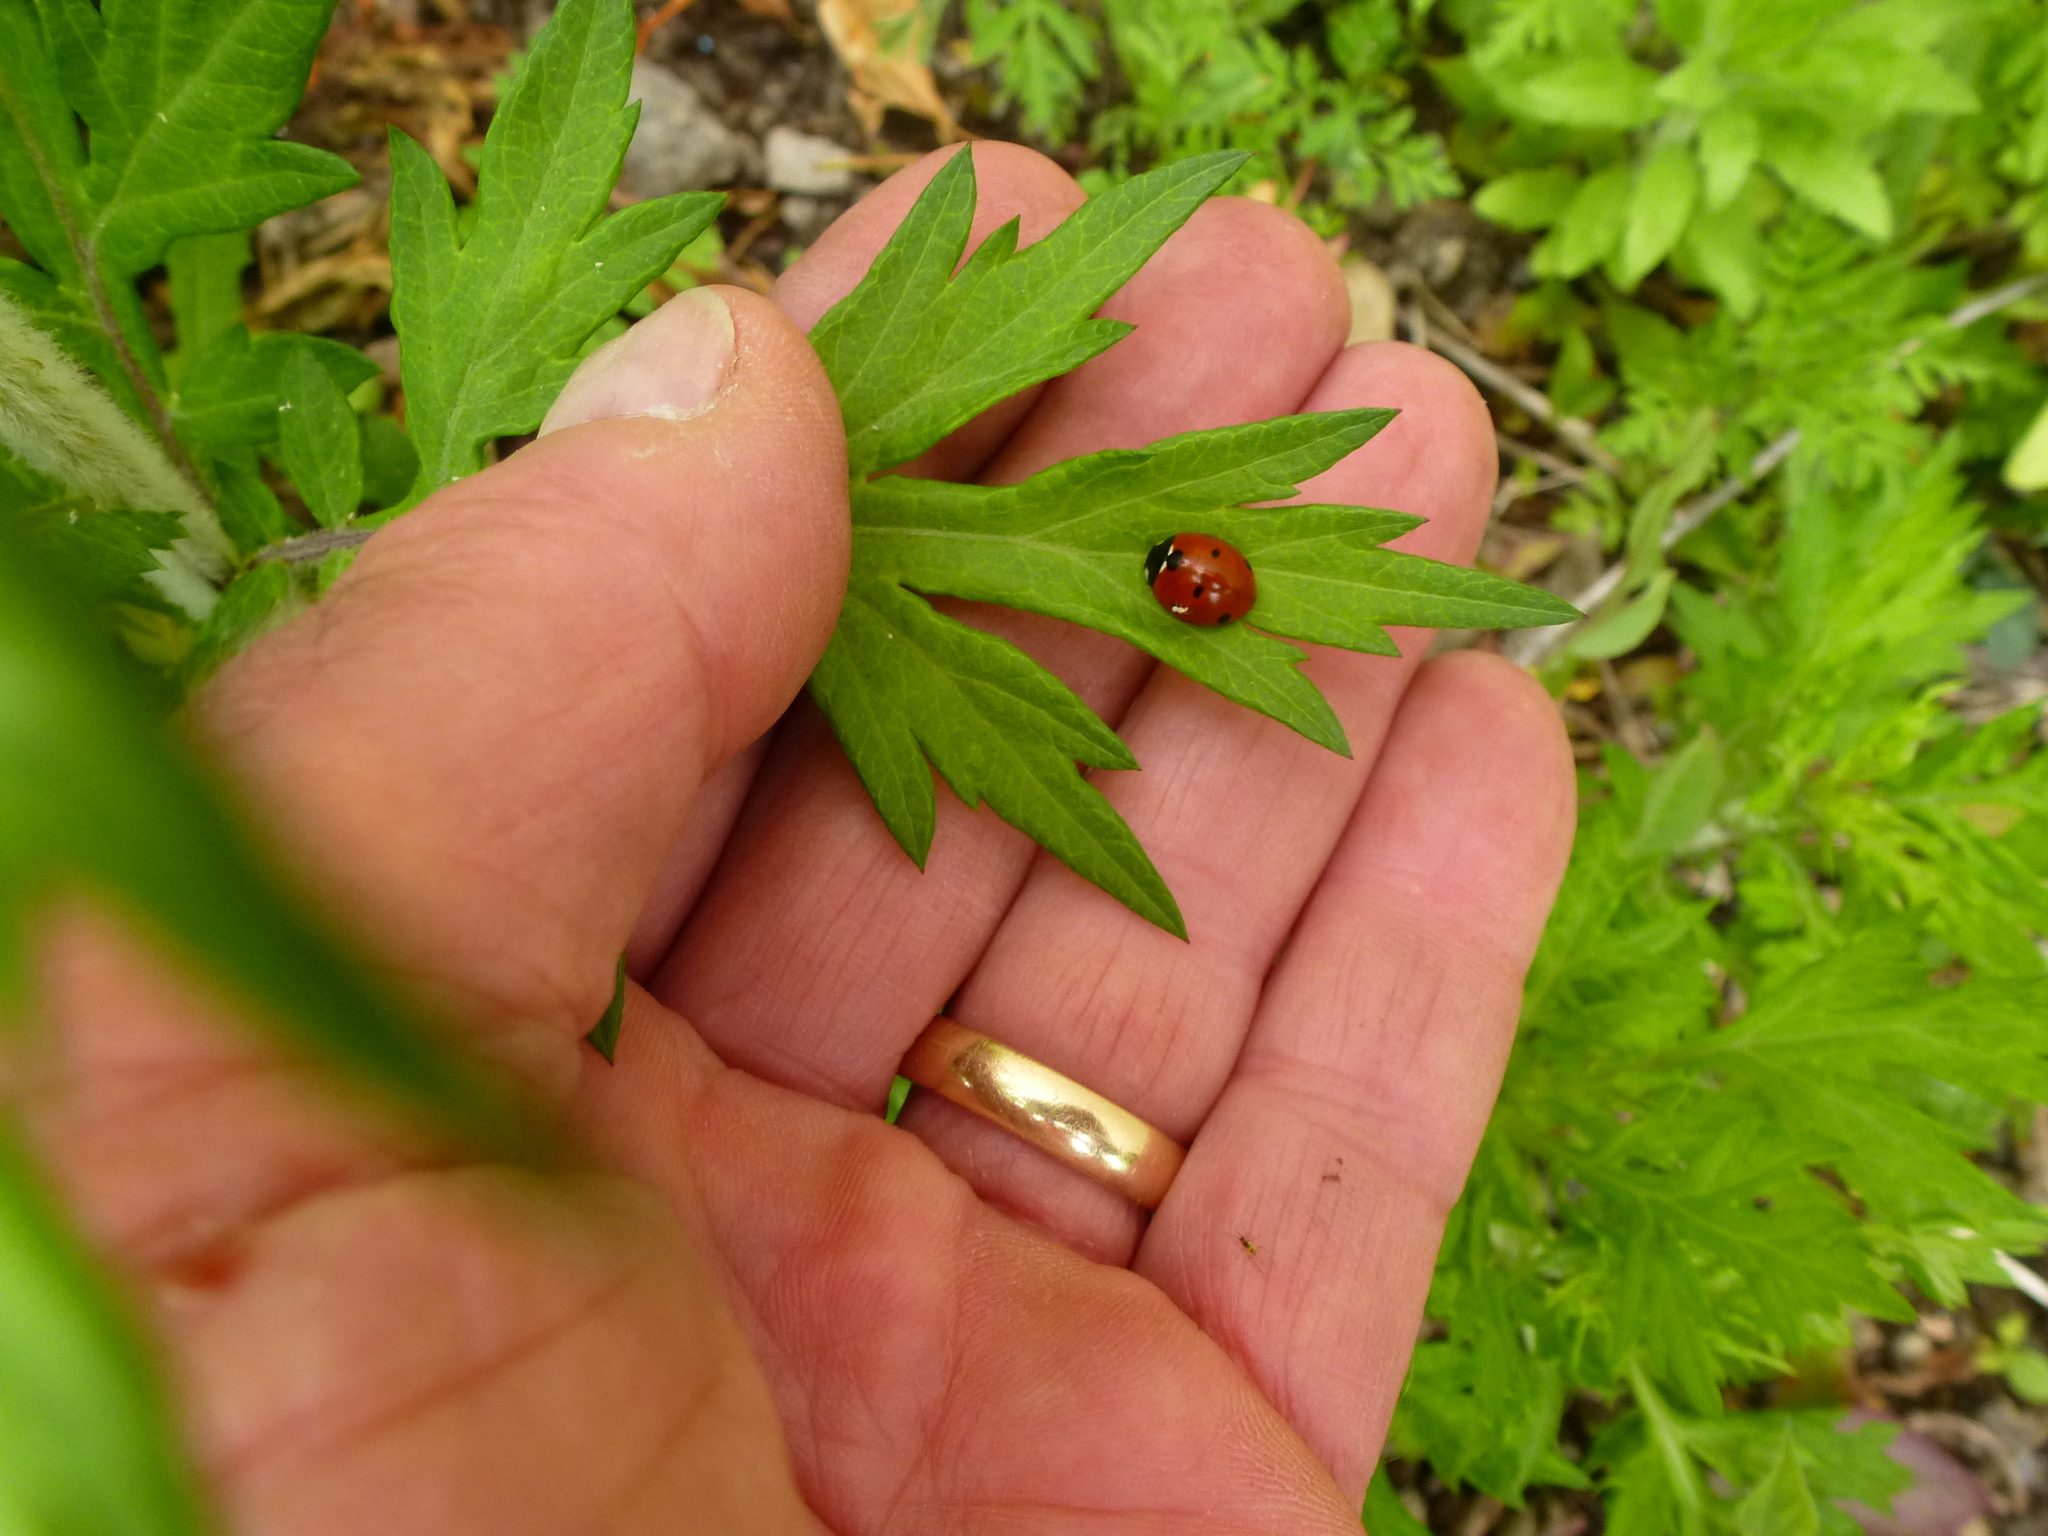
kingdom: Animalia
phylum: Arthropoda
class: Insecta
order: Coleoptera
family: Coccinellidae
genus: Coccinella
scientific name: Coccinella septempunctata
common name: Sevenspotted lady beetle
